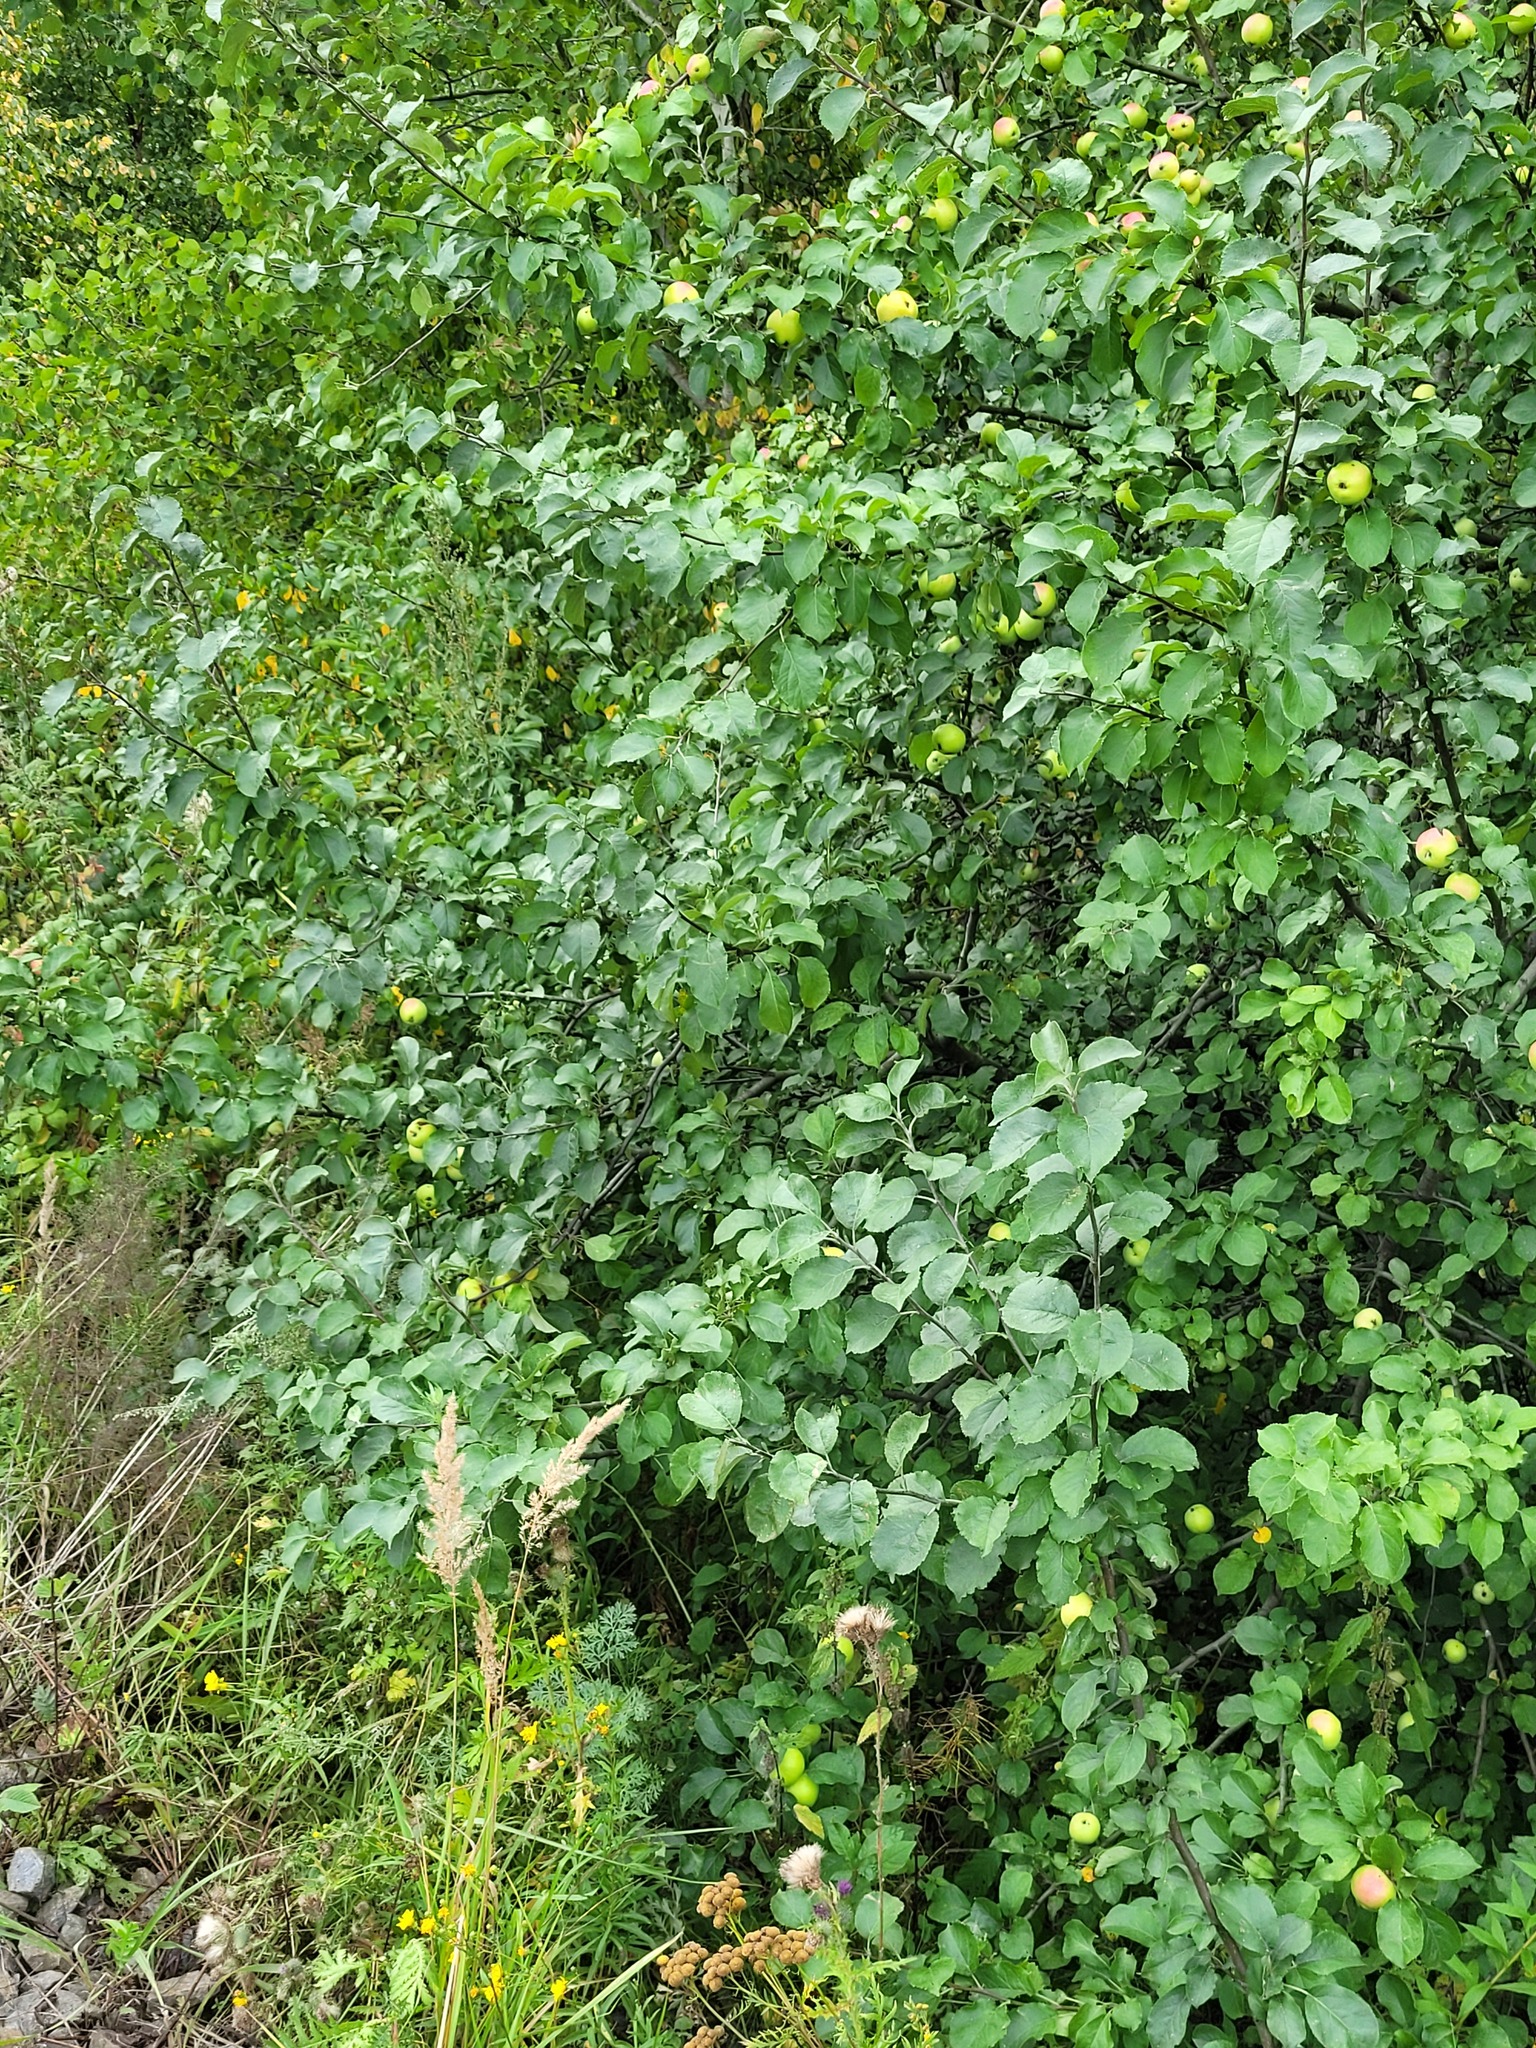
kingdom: Plantae
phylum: Tracheophyta
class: Magnoliopsida
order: Rosales
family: Rosaceae
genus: Malus
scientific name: Malus domestica
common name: Apple
